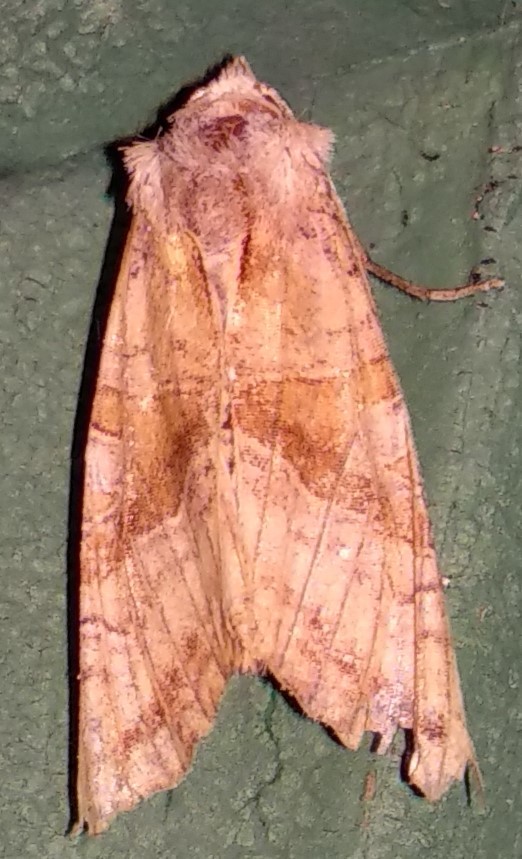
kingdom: Animalia
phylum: Arthropoda
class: Insecta
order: Lepidoptera
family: Noctuidae
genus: Phlogophora
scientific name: Phlogophora periculosa
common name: Brown angle shades
